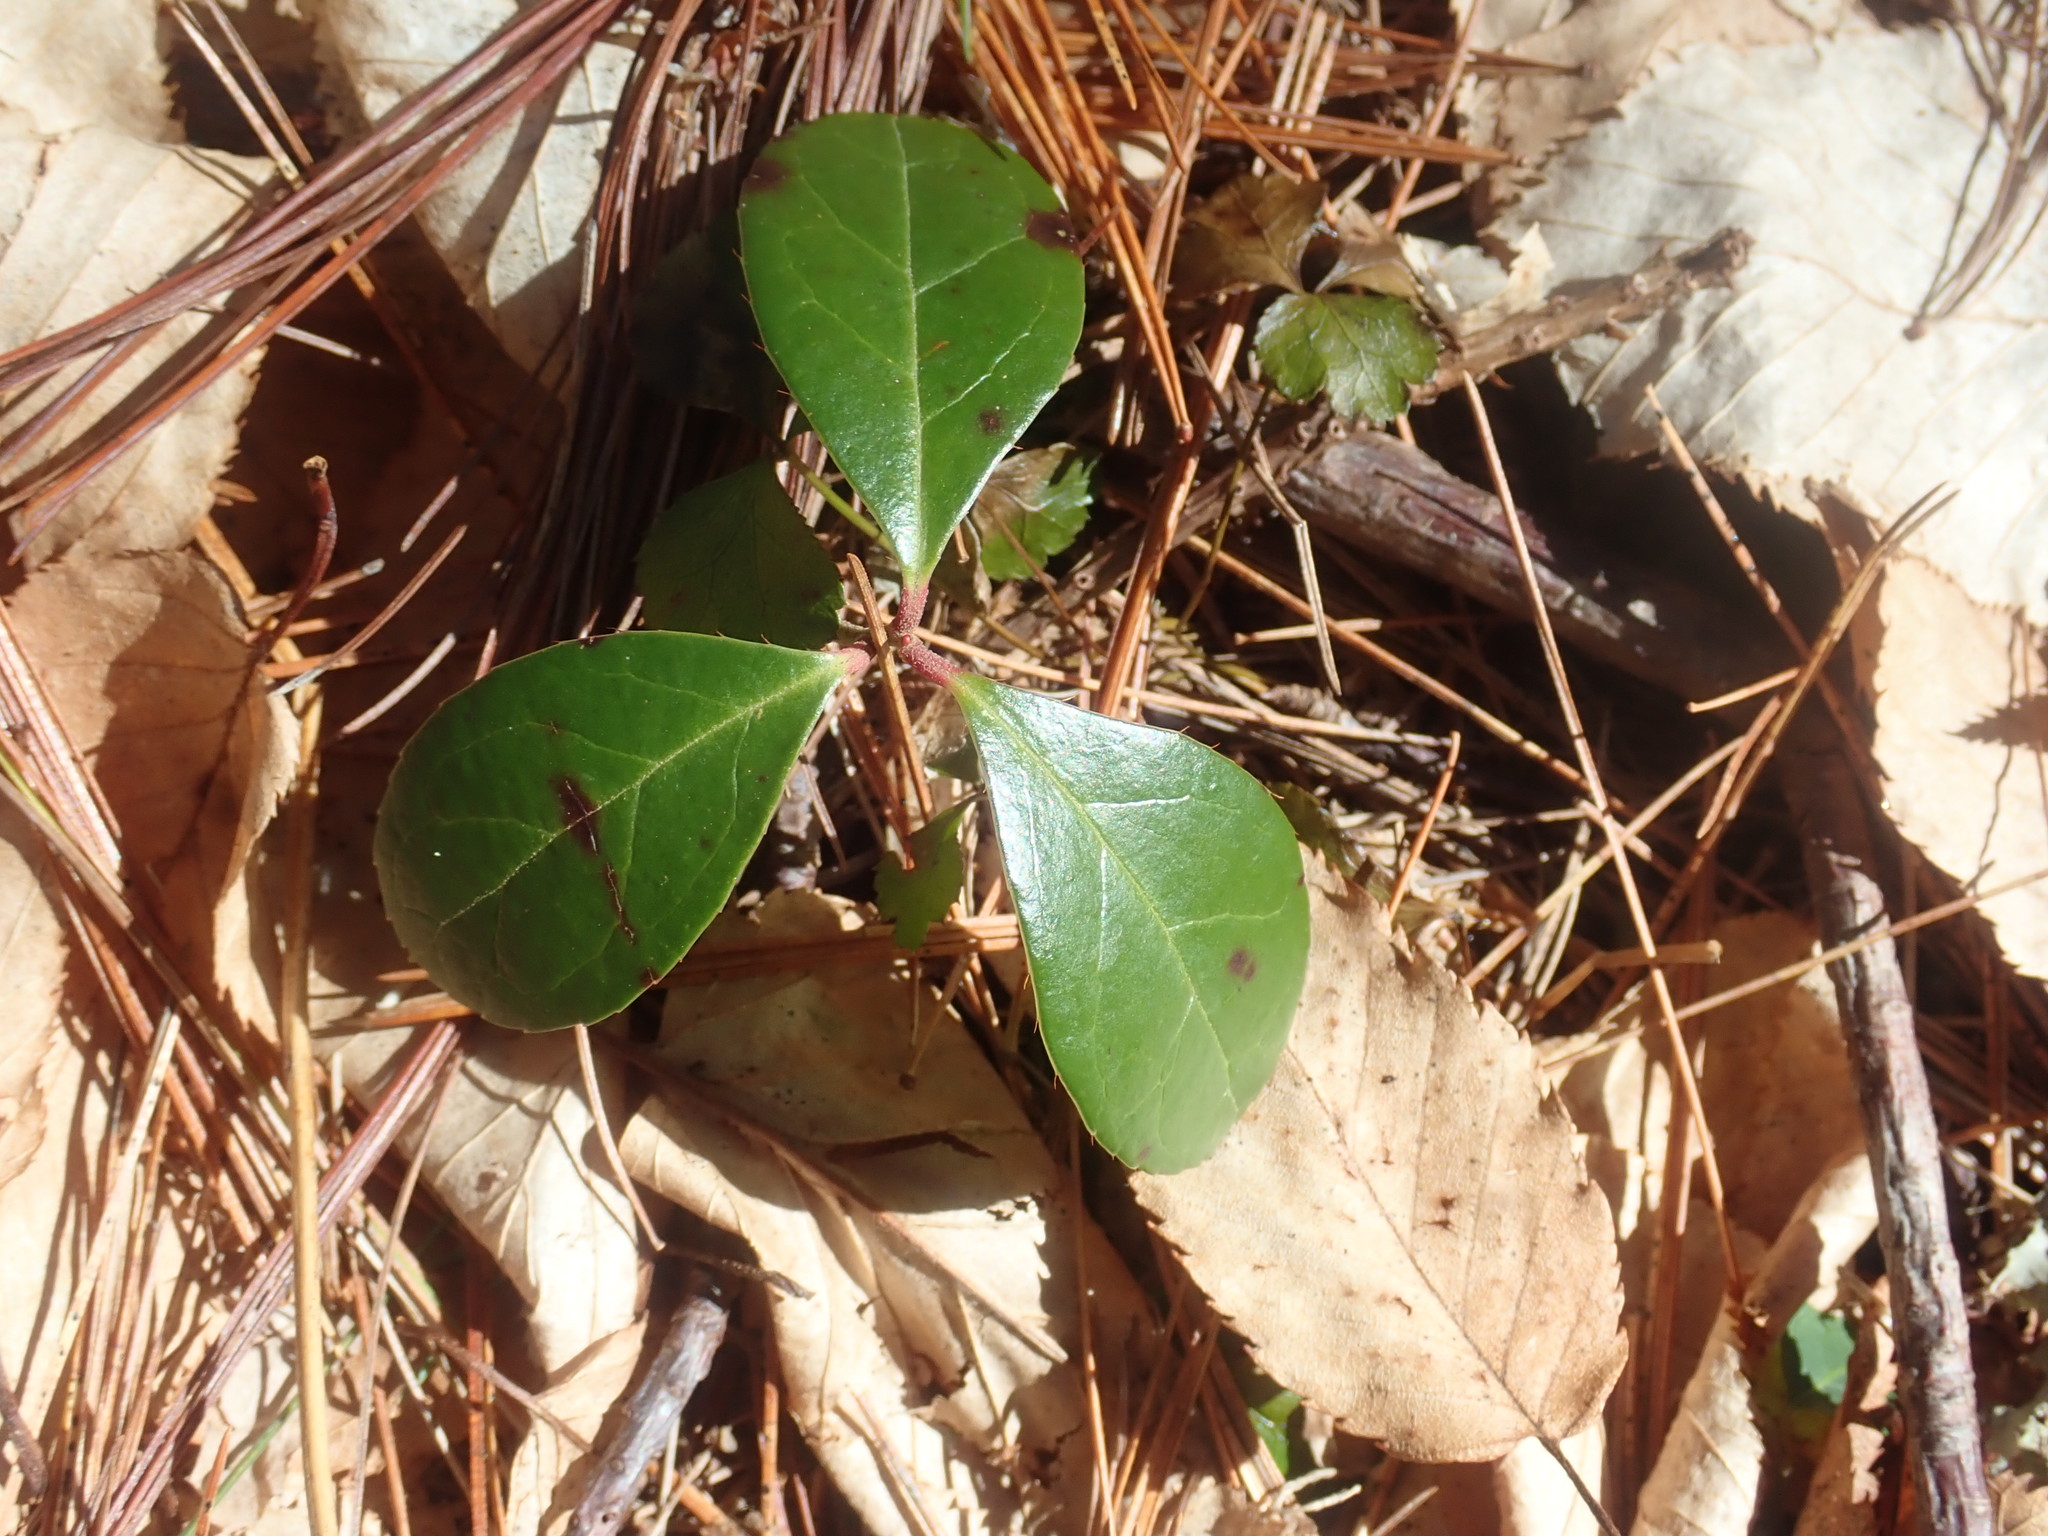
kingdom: Plantae
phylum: Tracheophyta
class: Magnoliopsida
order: Ericales
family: Ericaceae
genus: Gaultheria
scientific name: Gaultheria procumbens
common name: Checkerberry
